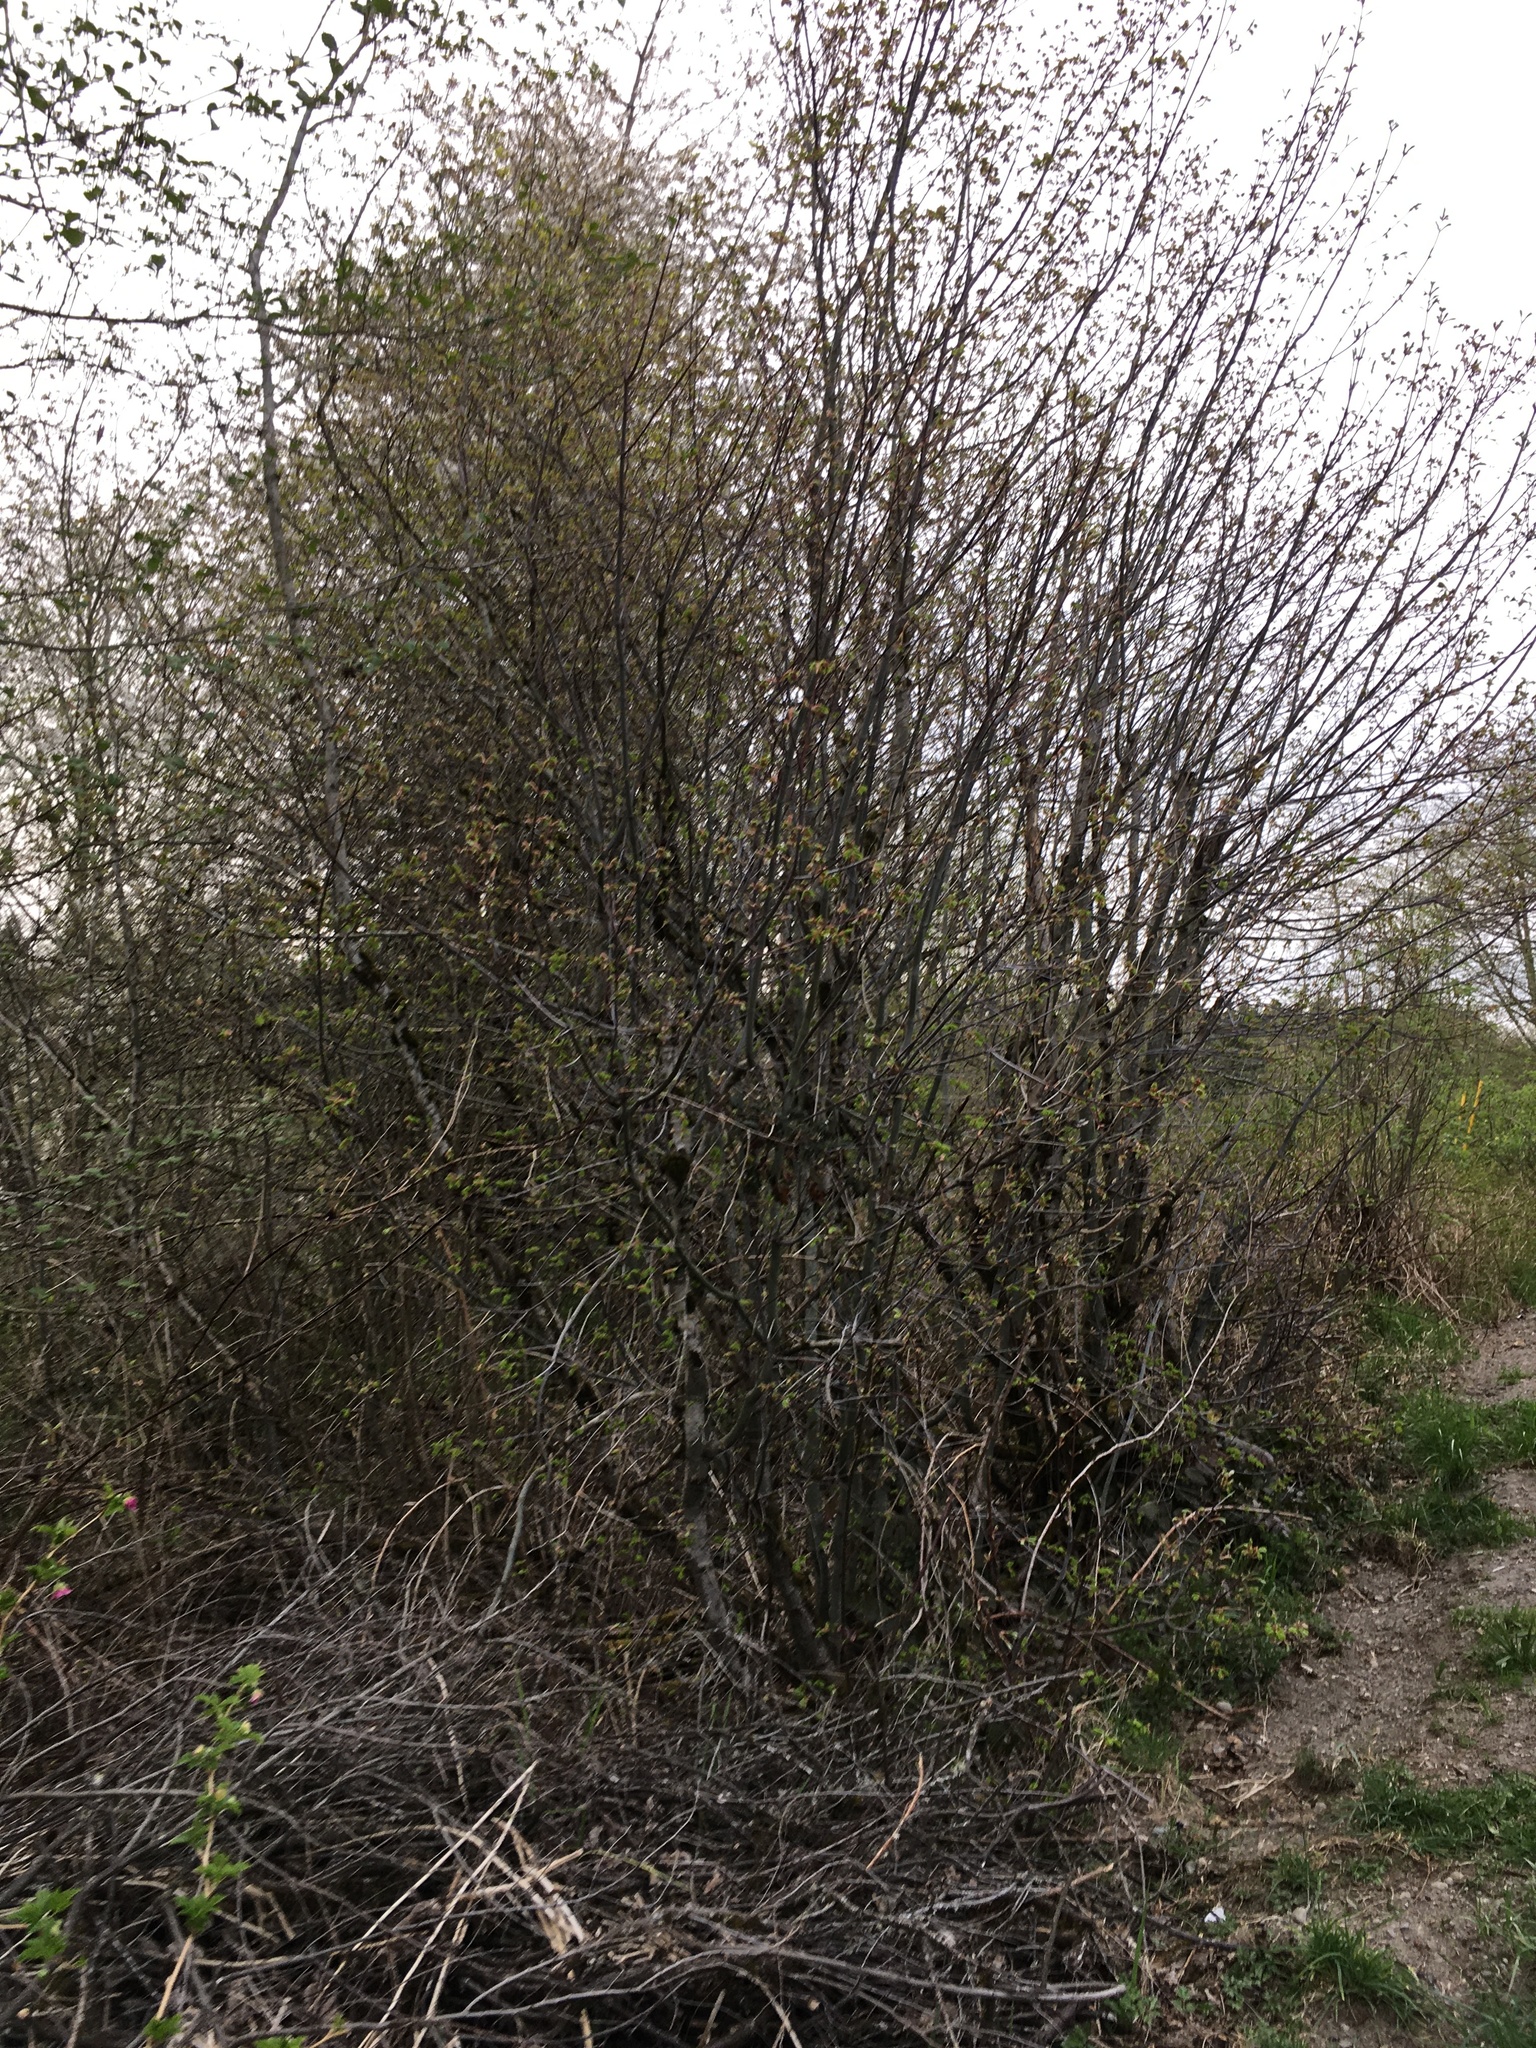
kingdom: Plantae
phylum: Tracheophyta
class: Magnoliopsida
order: Sapindales
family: Sapindaceae
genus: Acer
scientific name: Acer circinatum
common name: Vine maple
